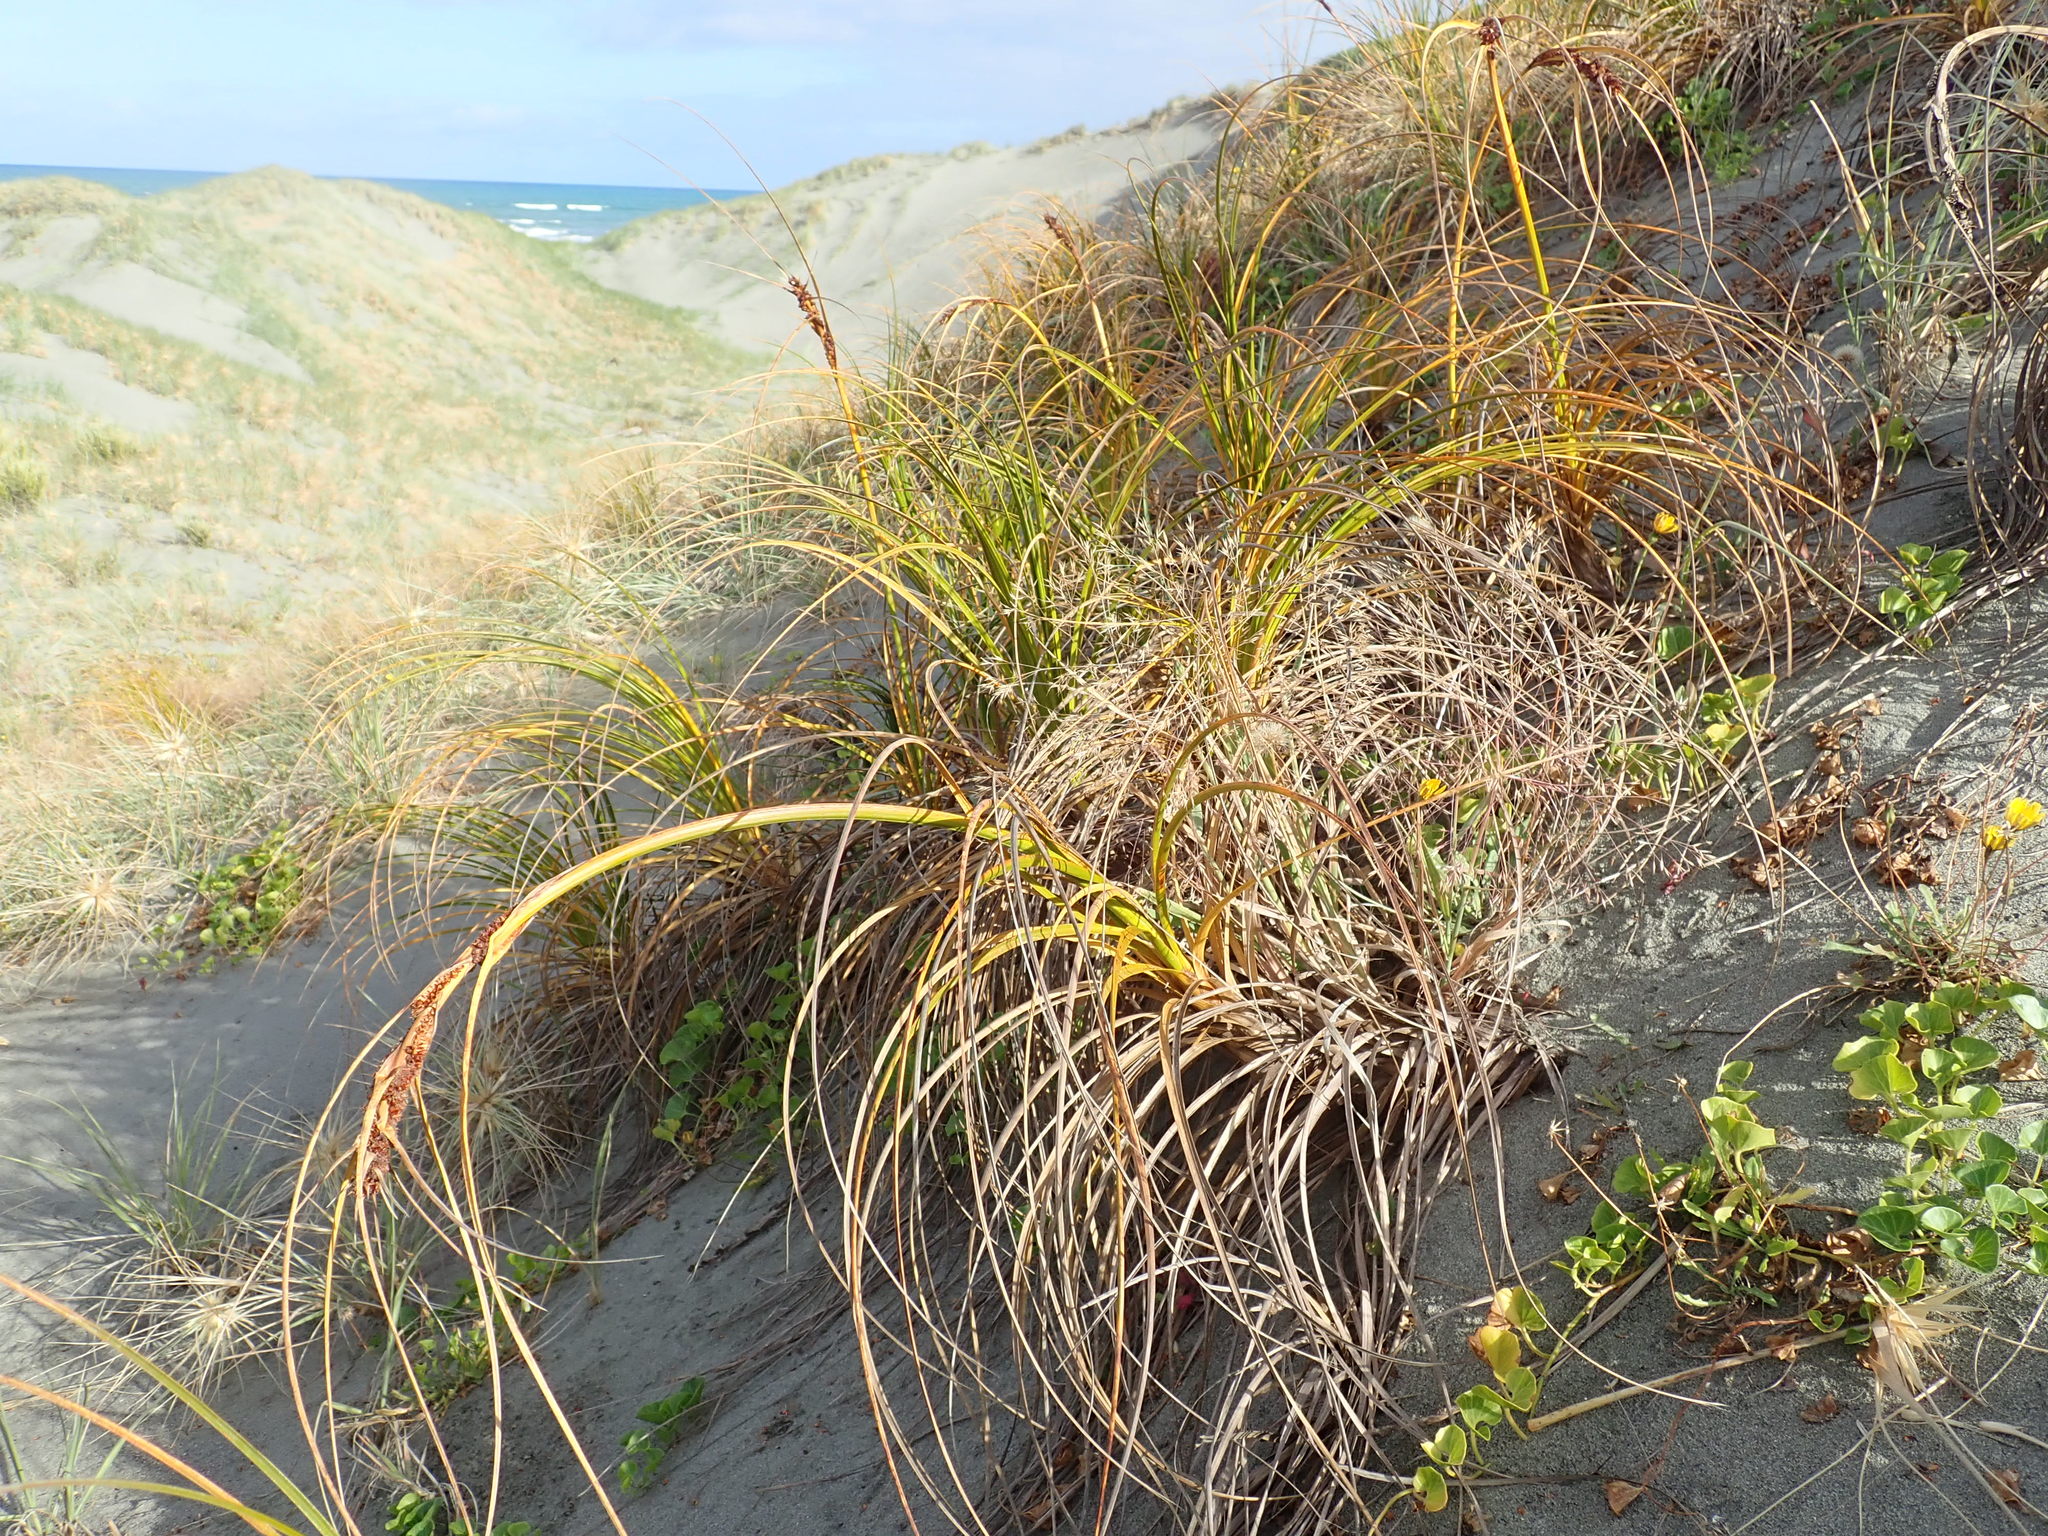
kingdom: Plantae
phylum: Tracheophyta
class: Liliopsida
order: Poales
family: Cyperaceae
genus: Ficinia
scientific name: Ficinia spiralis
